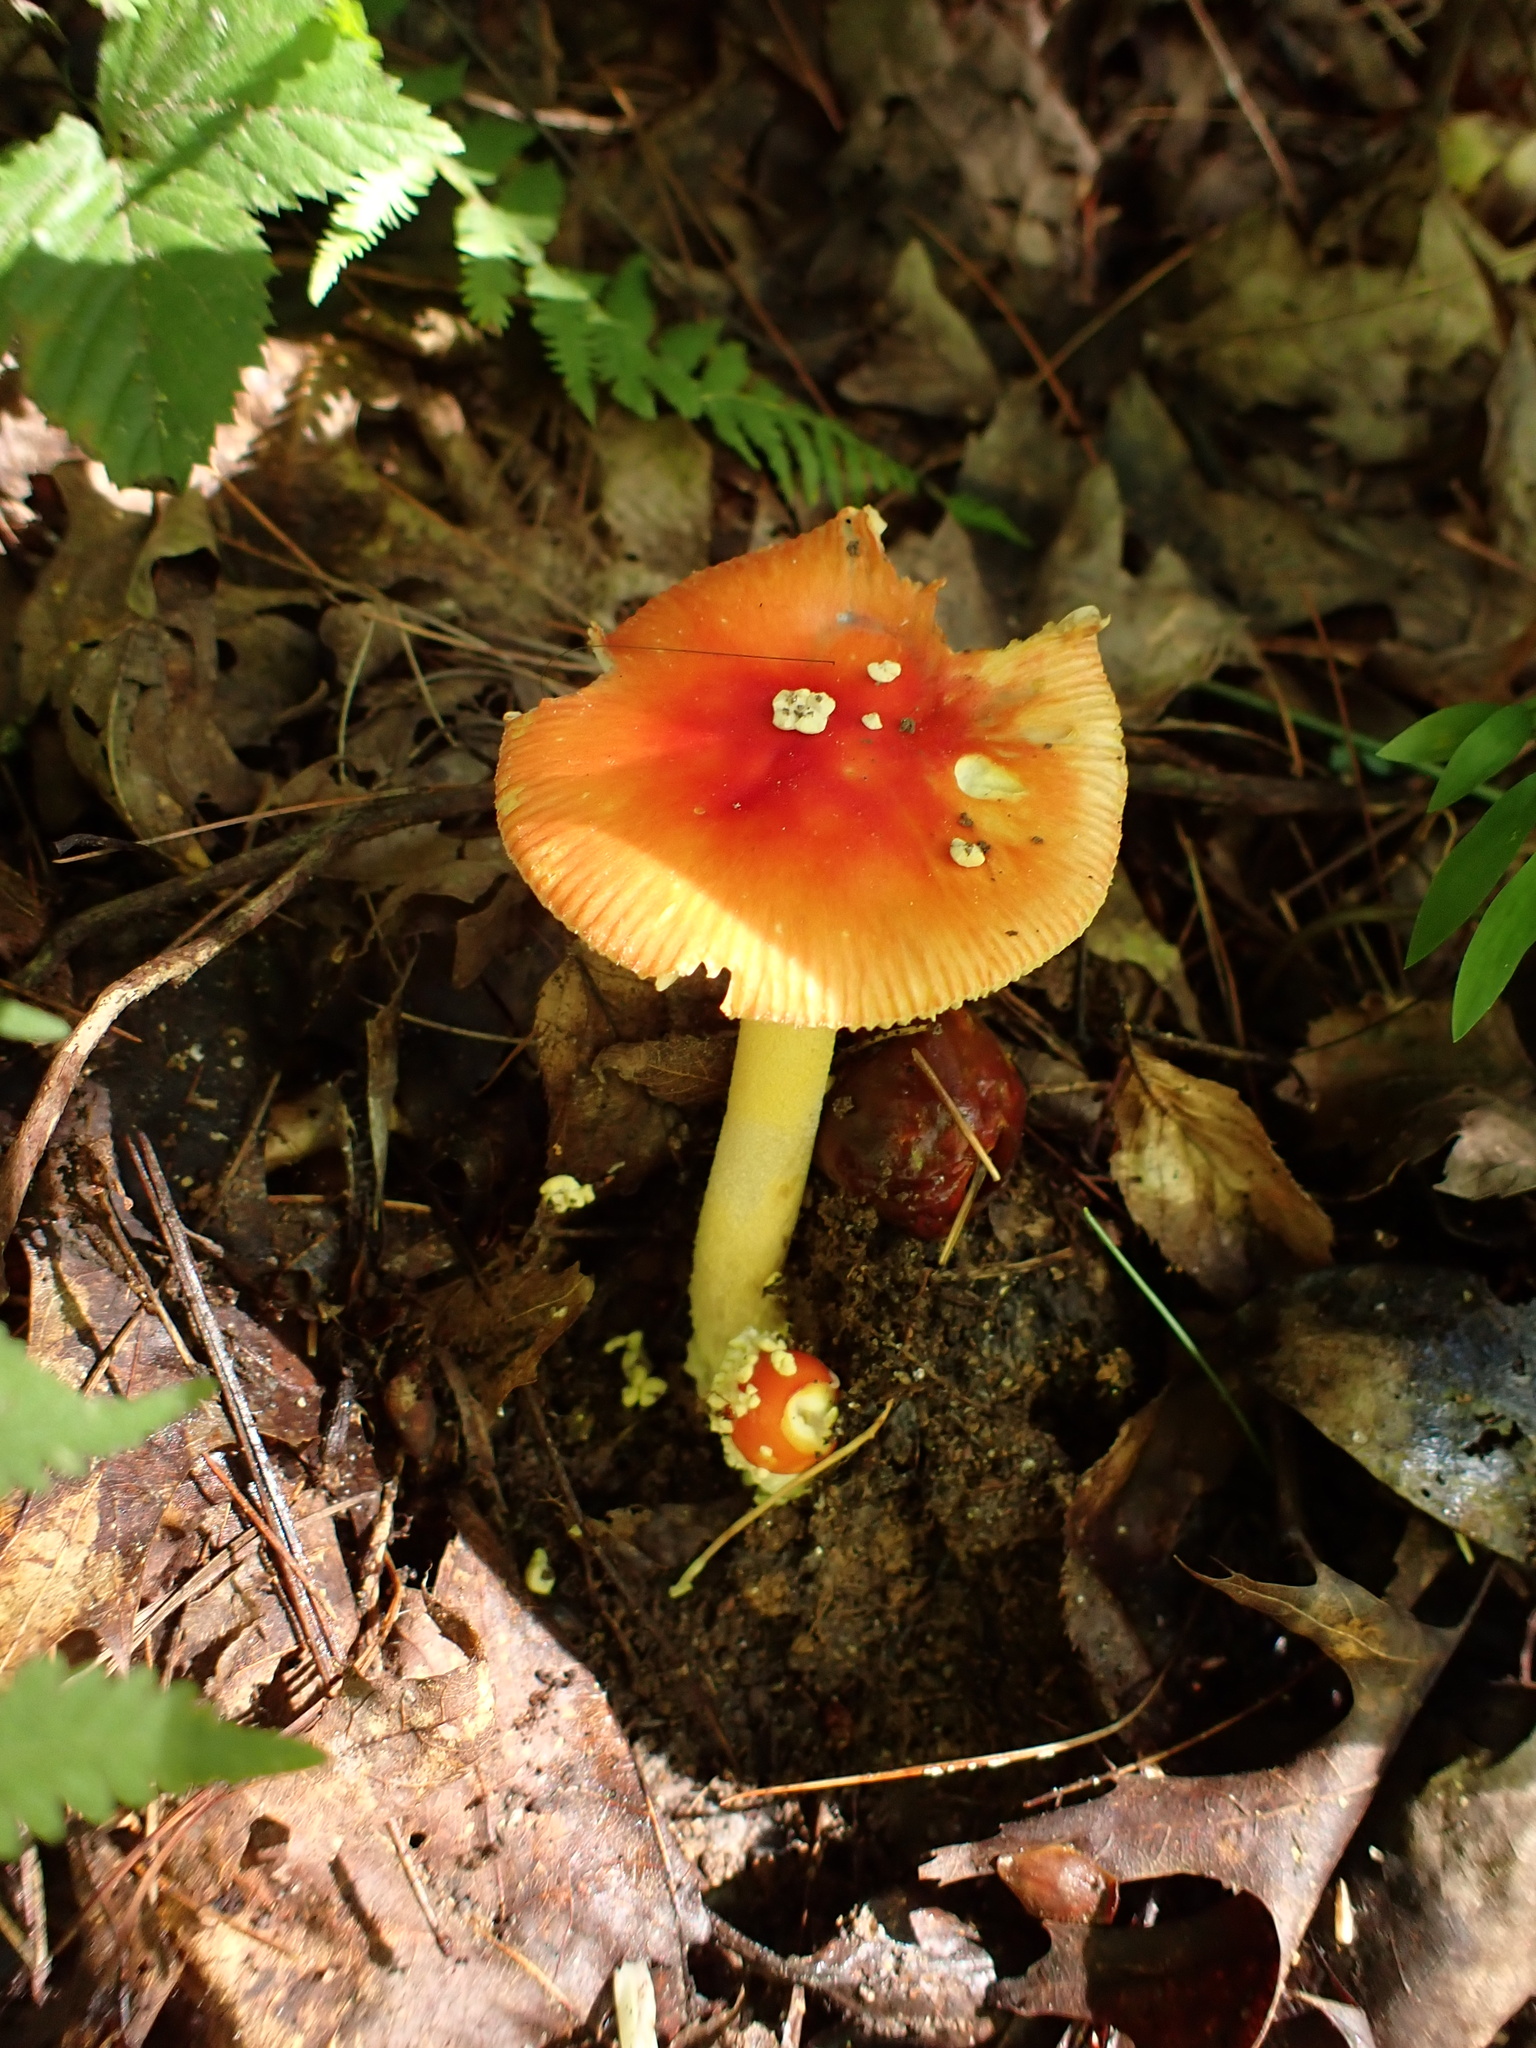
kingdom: Fungi
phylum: Basidiomycota
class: Agaricomycetes
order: Agaricales
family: Amanitaceae
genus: Amanita
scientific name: Amanita parcivolvata
